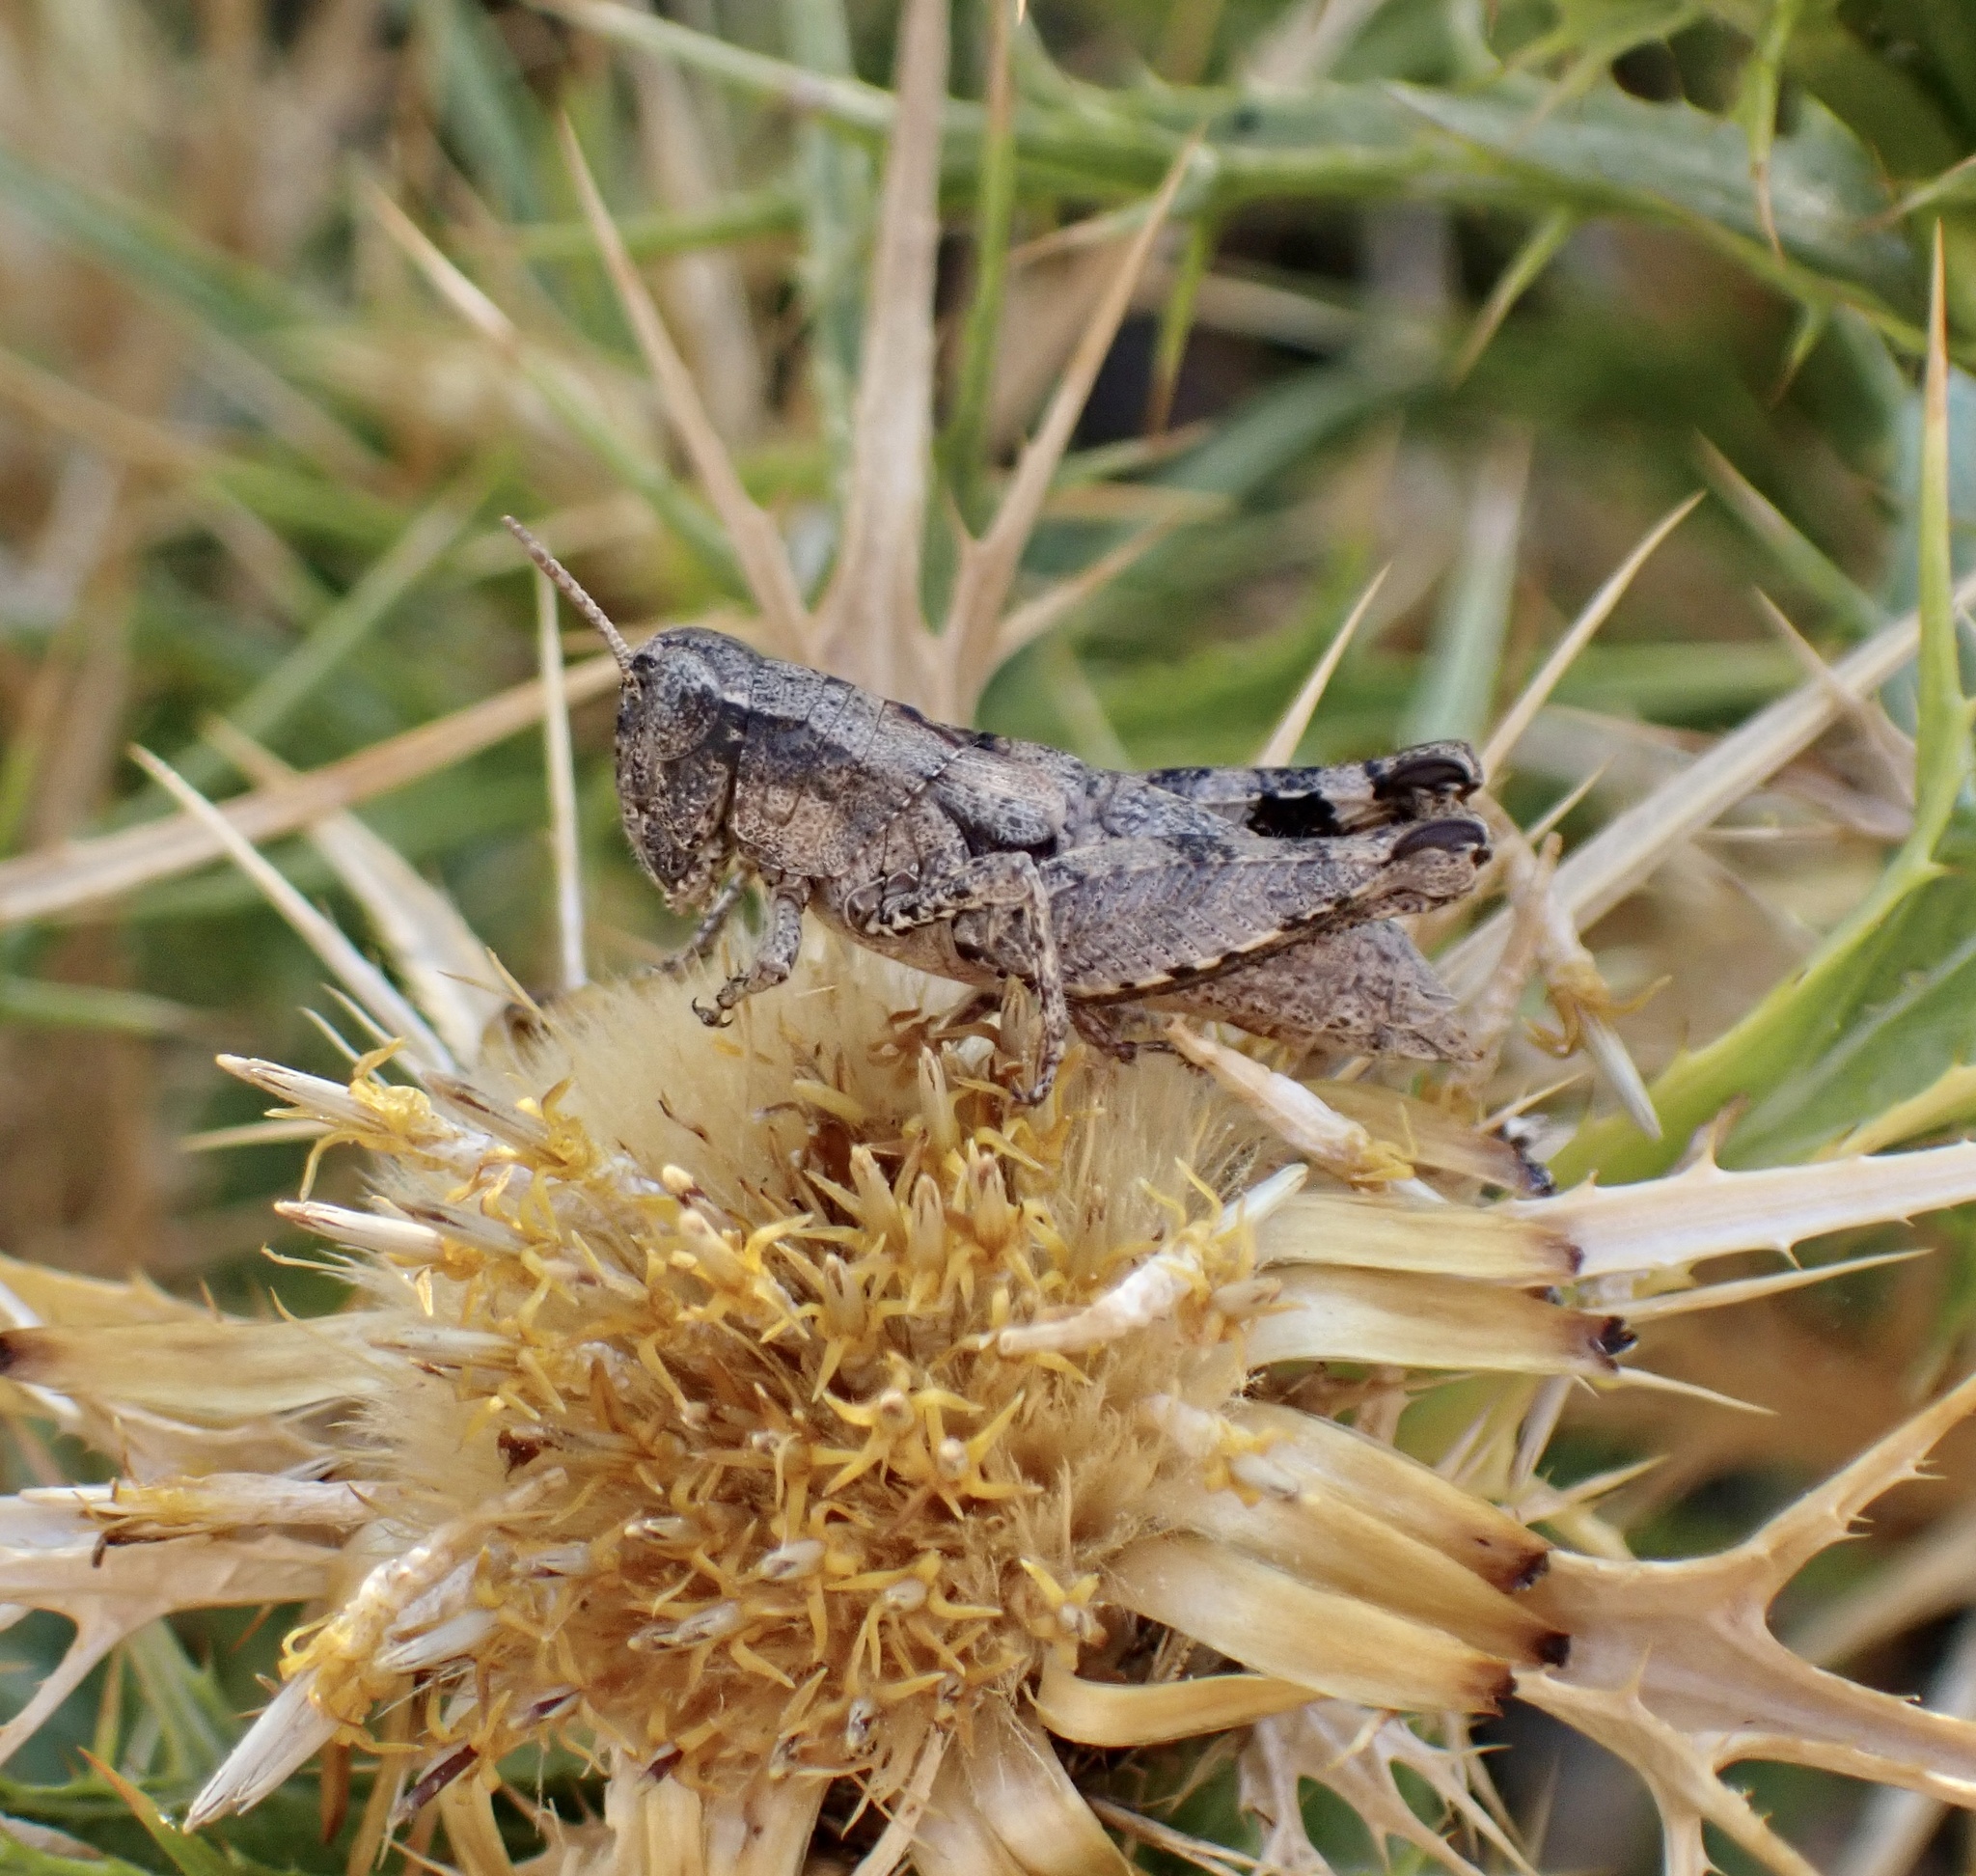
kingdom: Animalia
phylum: Arthropoda
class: Insecta
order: Orthoptera
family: Acrididae
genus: Pezotettix
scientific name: Pezotettix giornae
